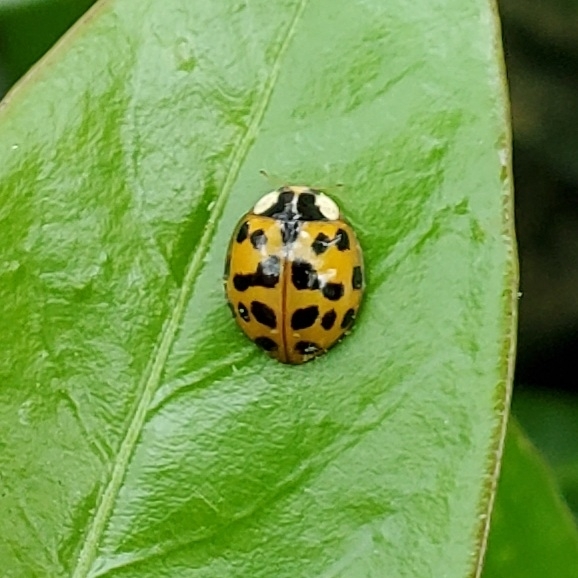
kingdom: Animalia
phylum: Arthropoda
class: Insecta
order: Coleoptera
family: Coccinellidae
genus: Harmonia
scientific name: Harmonia axyridis
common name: Harlequin ladybird
